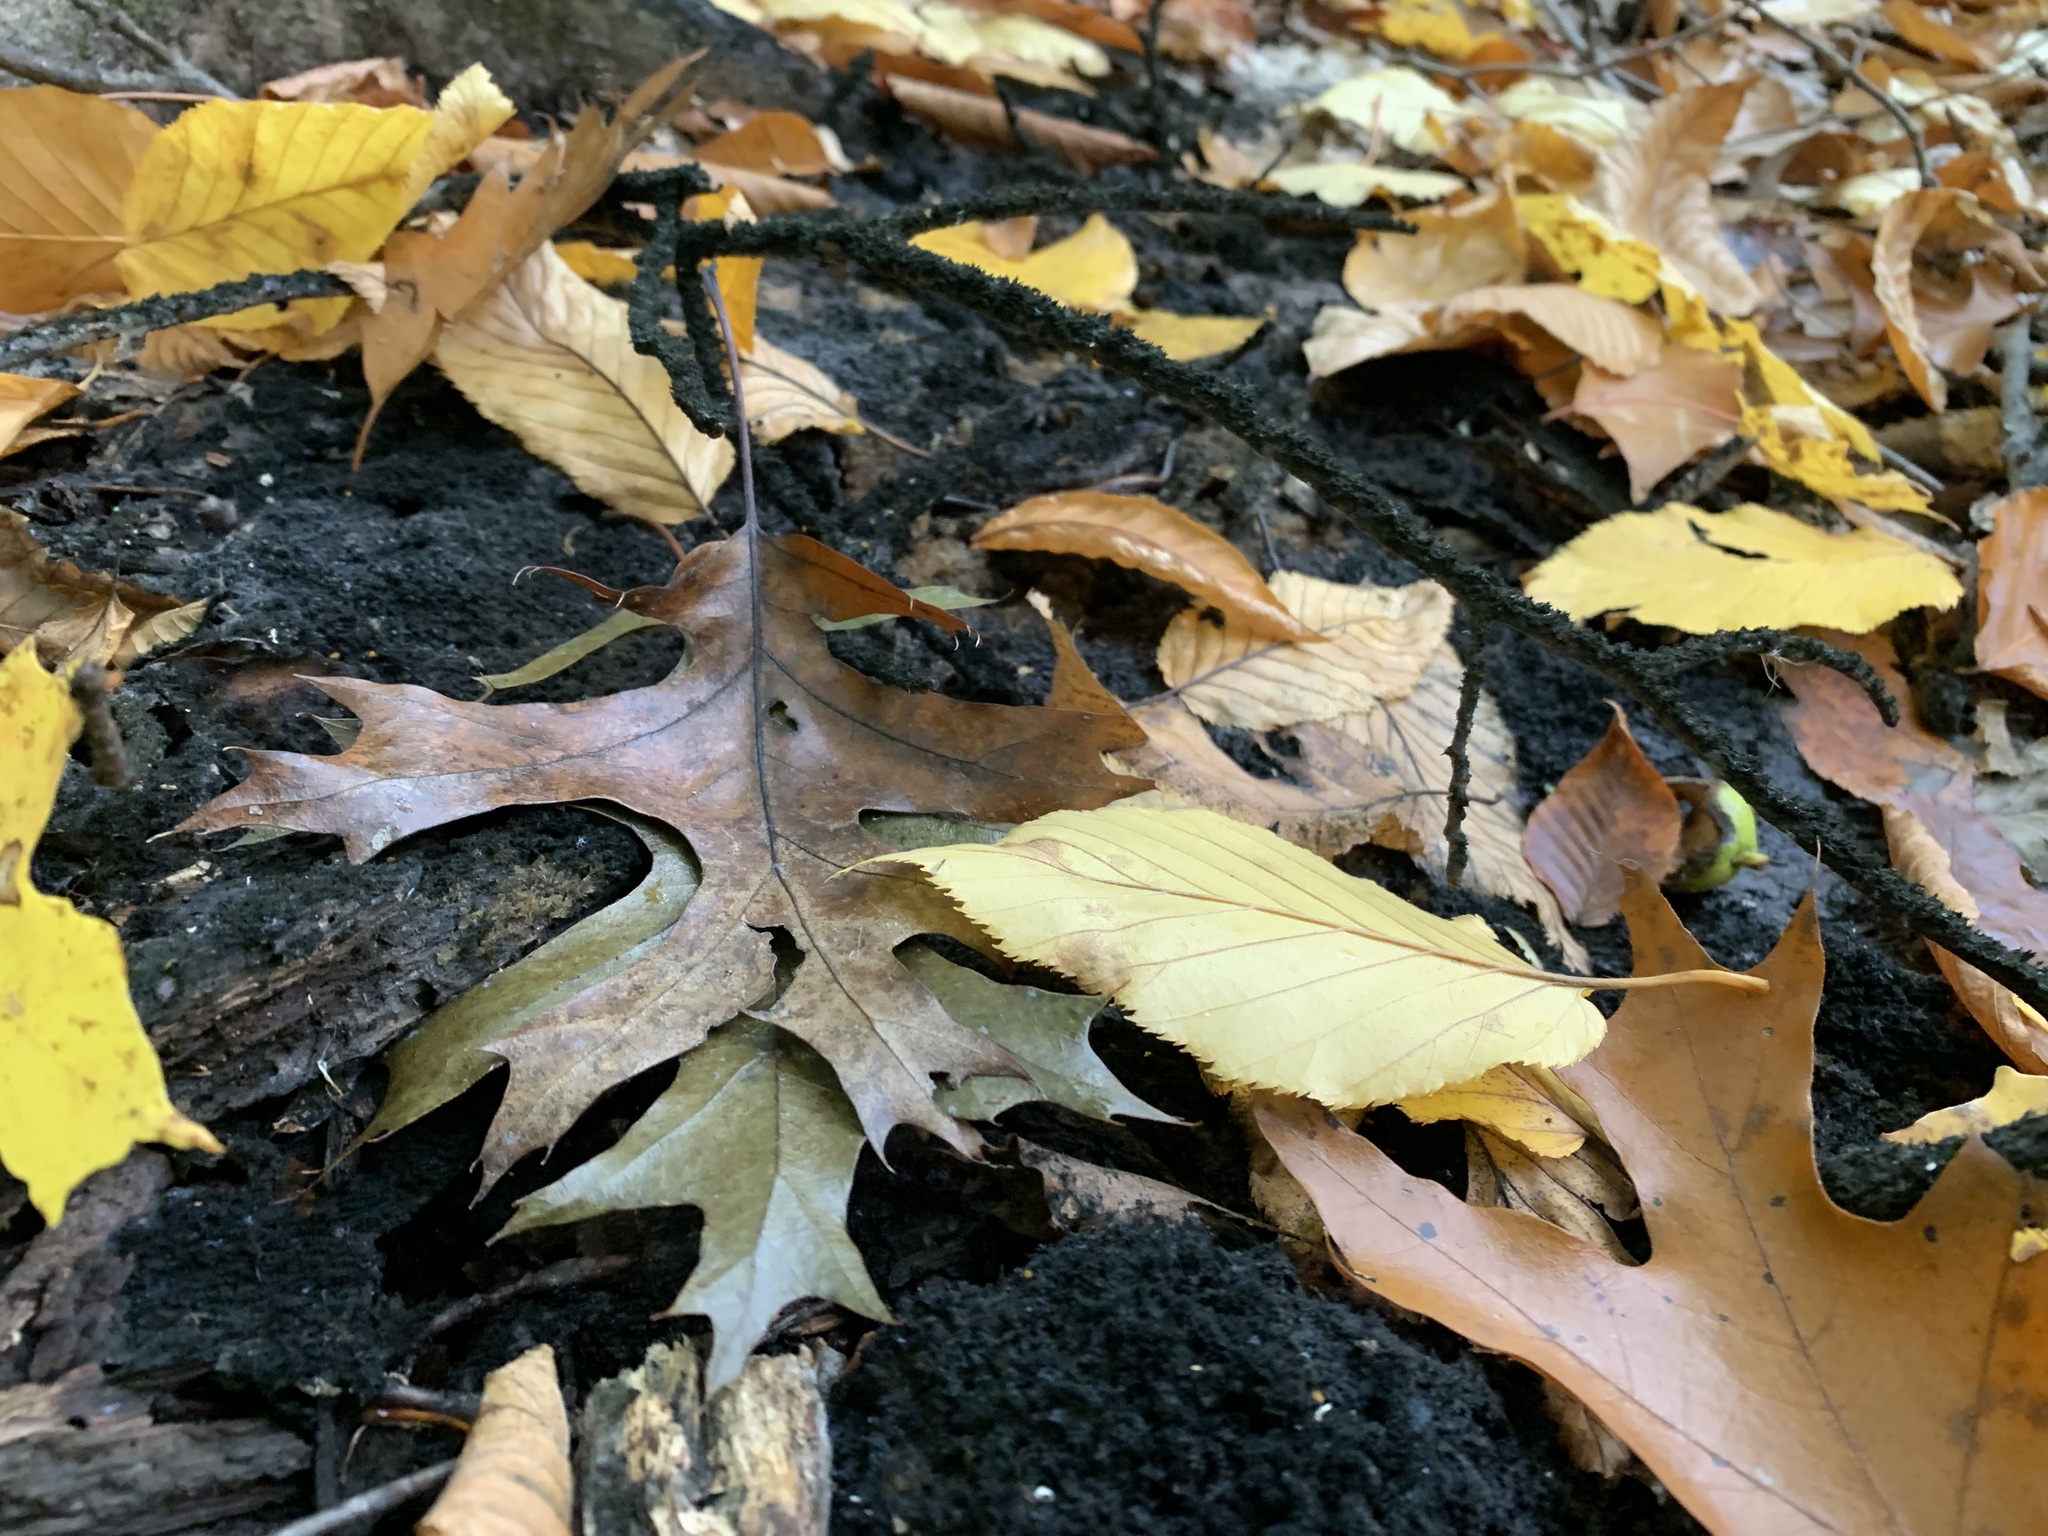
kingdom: Fungi
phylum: Ascomycota
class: Dothideomycetes
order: Capnodiales
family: Capnodiaceae
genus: Scorias
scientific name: Scorias spongiosa
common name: Black sooty mold
